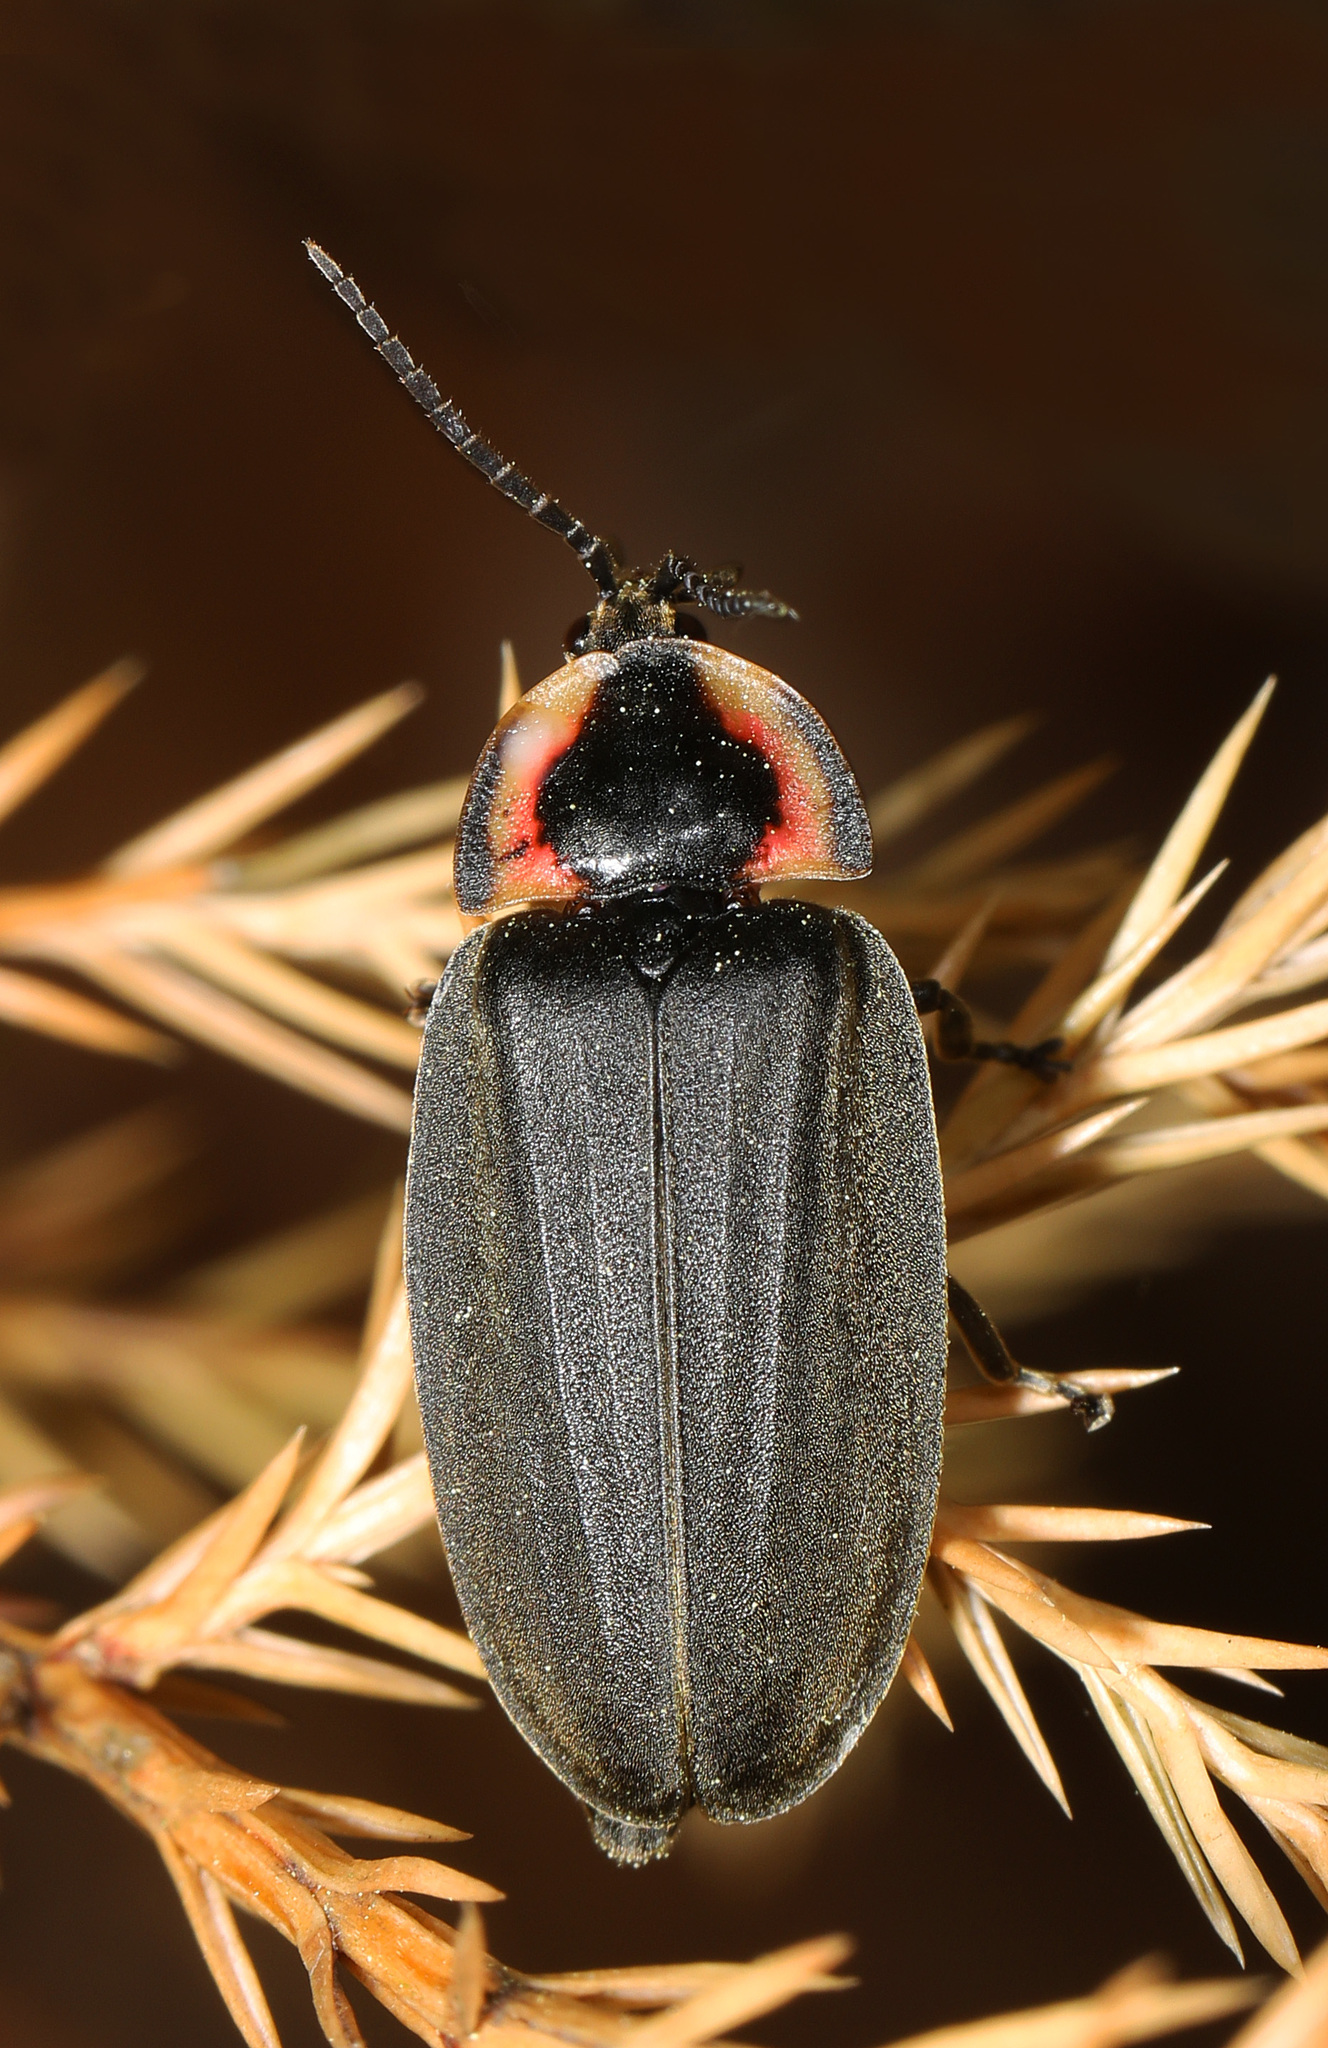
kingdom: Animalia
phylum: Arthropoda
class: Insecta
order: Coleoptera
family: Lampyridae
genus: Photinus
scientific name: Photinus corrusca
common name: Winter firefly
